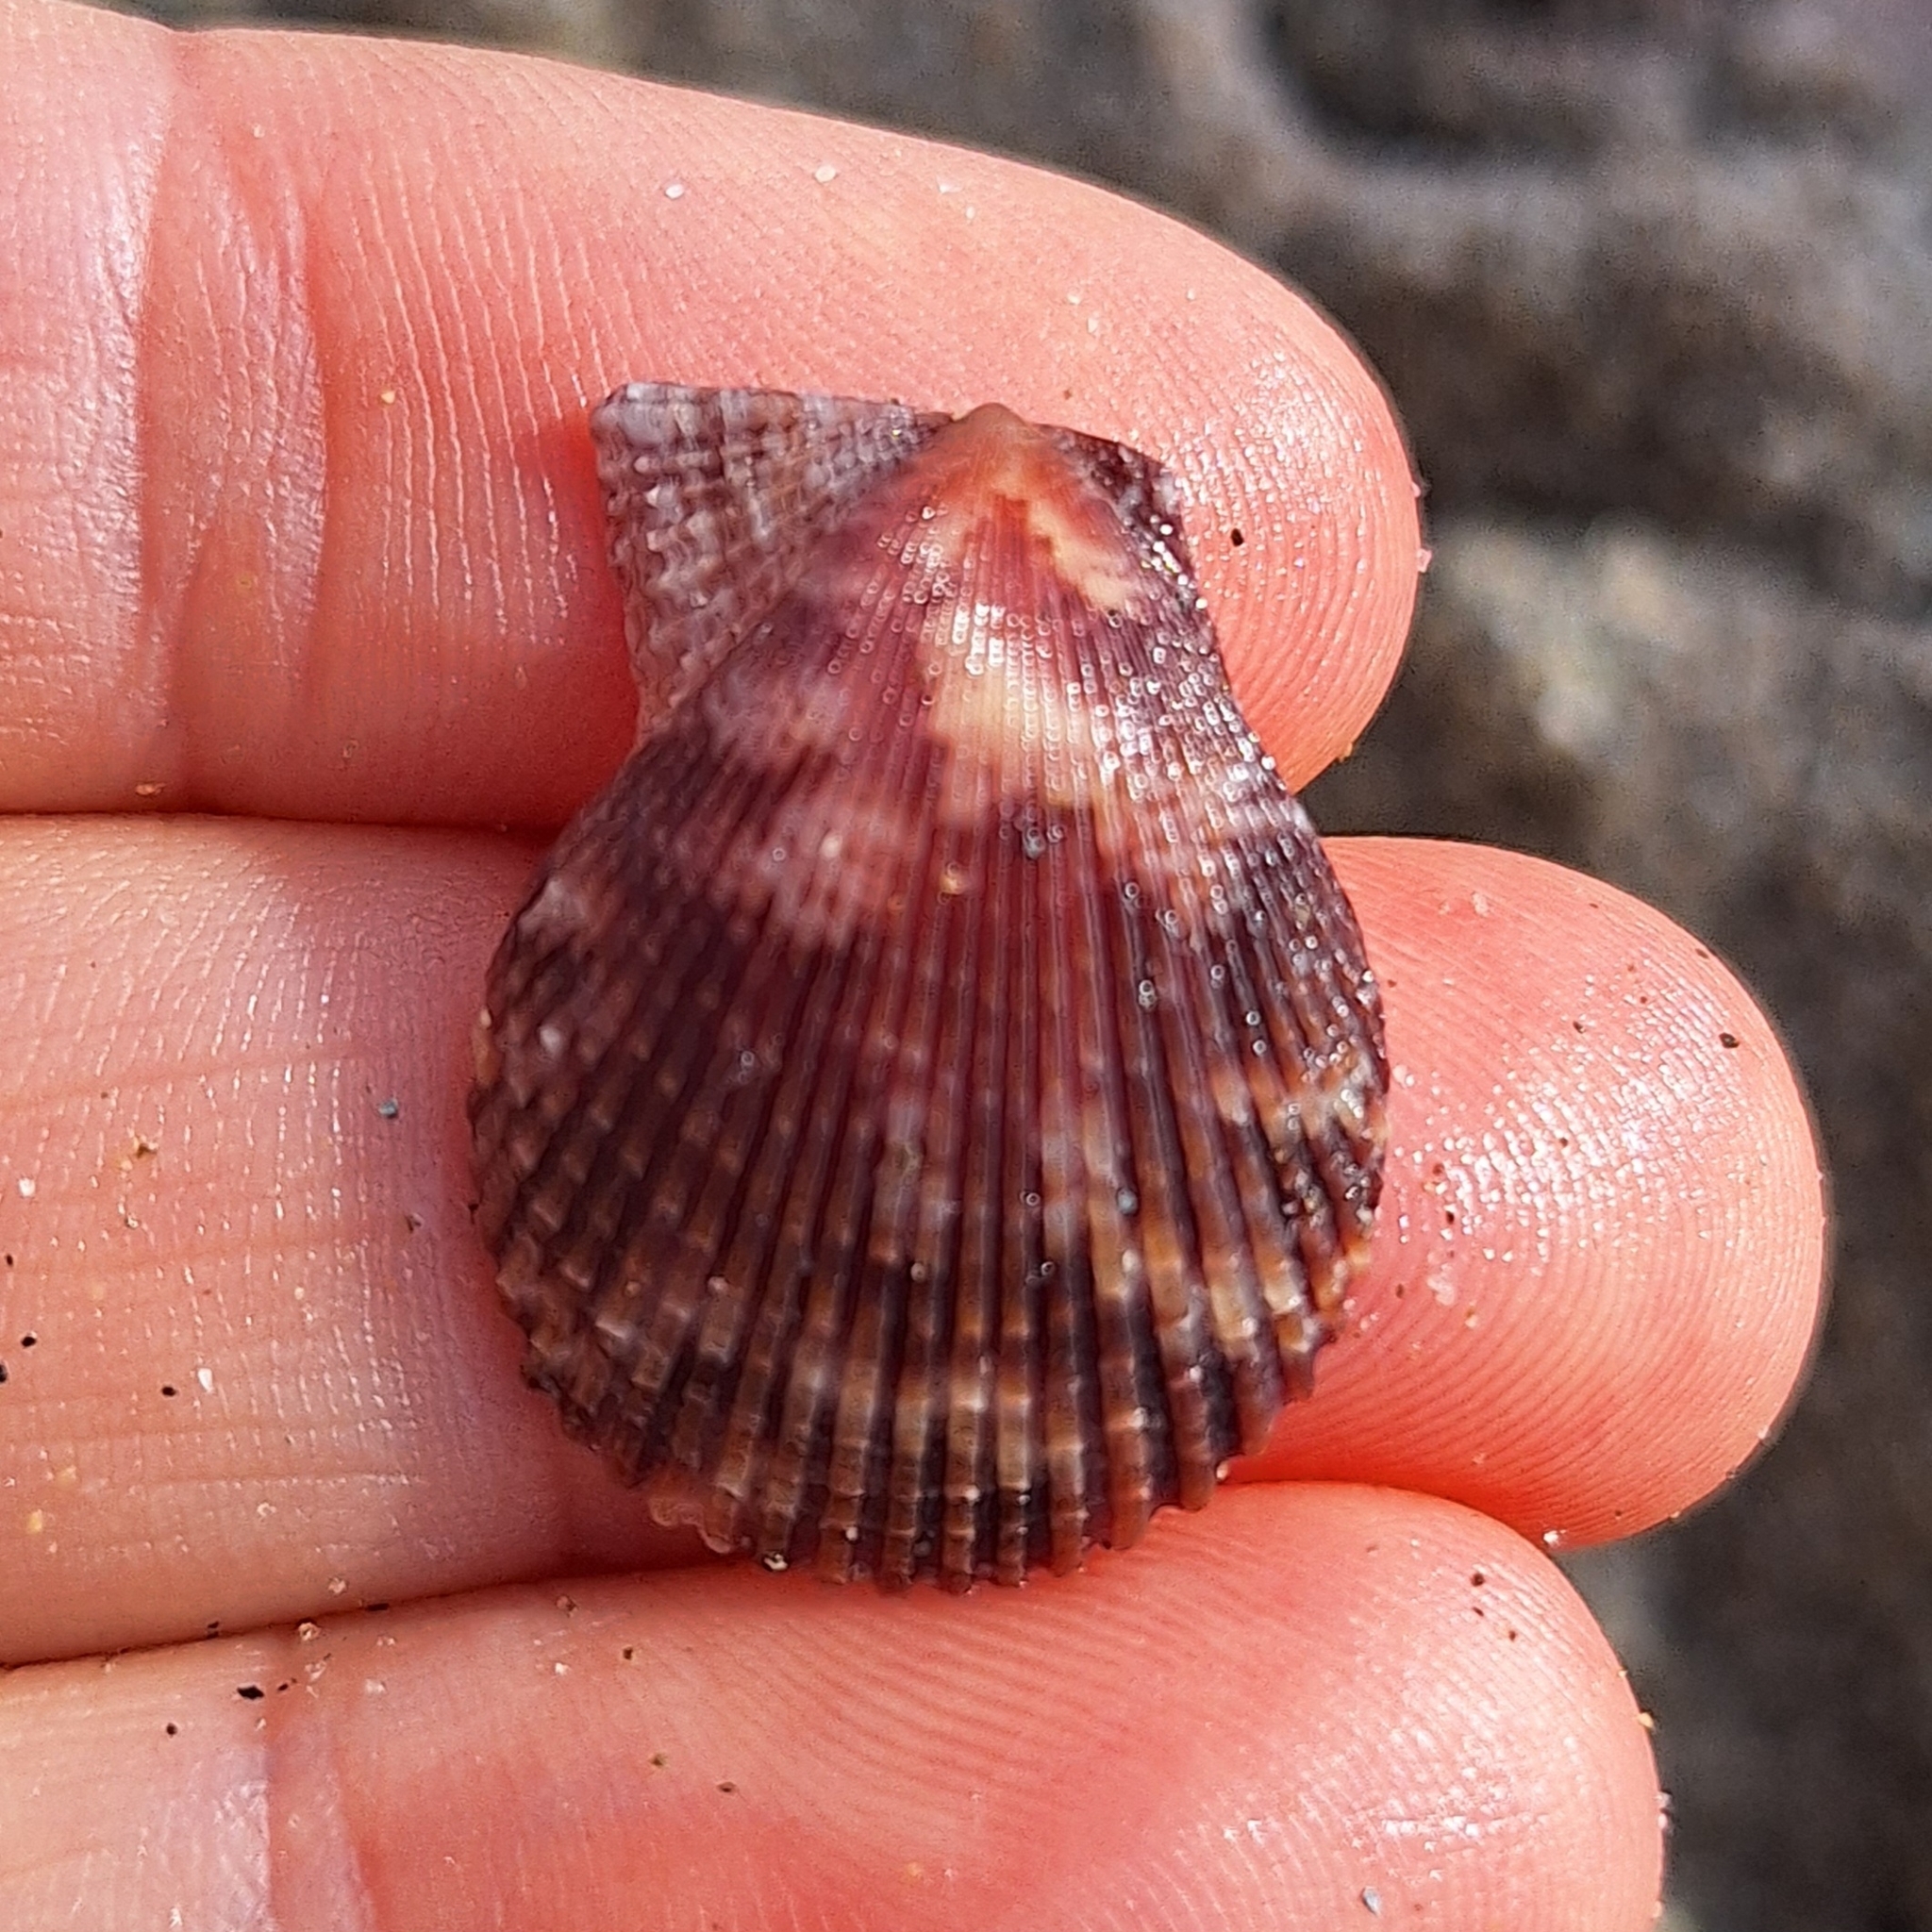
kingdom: Animalia
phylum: Mollusca
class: Bivalvia
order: Pectinida
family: Pectinidae
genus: Mimachlamys
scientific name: Mimachlamys varia
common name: Variegated scallop
